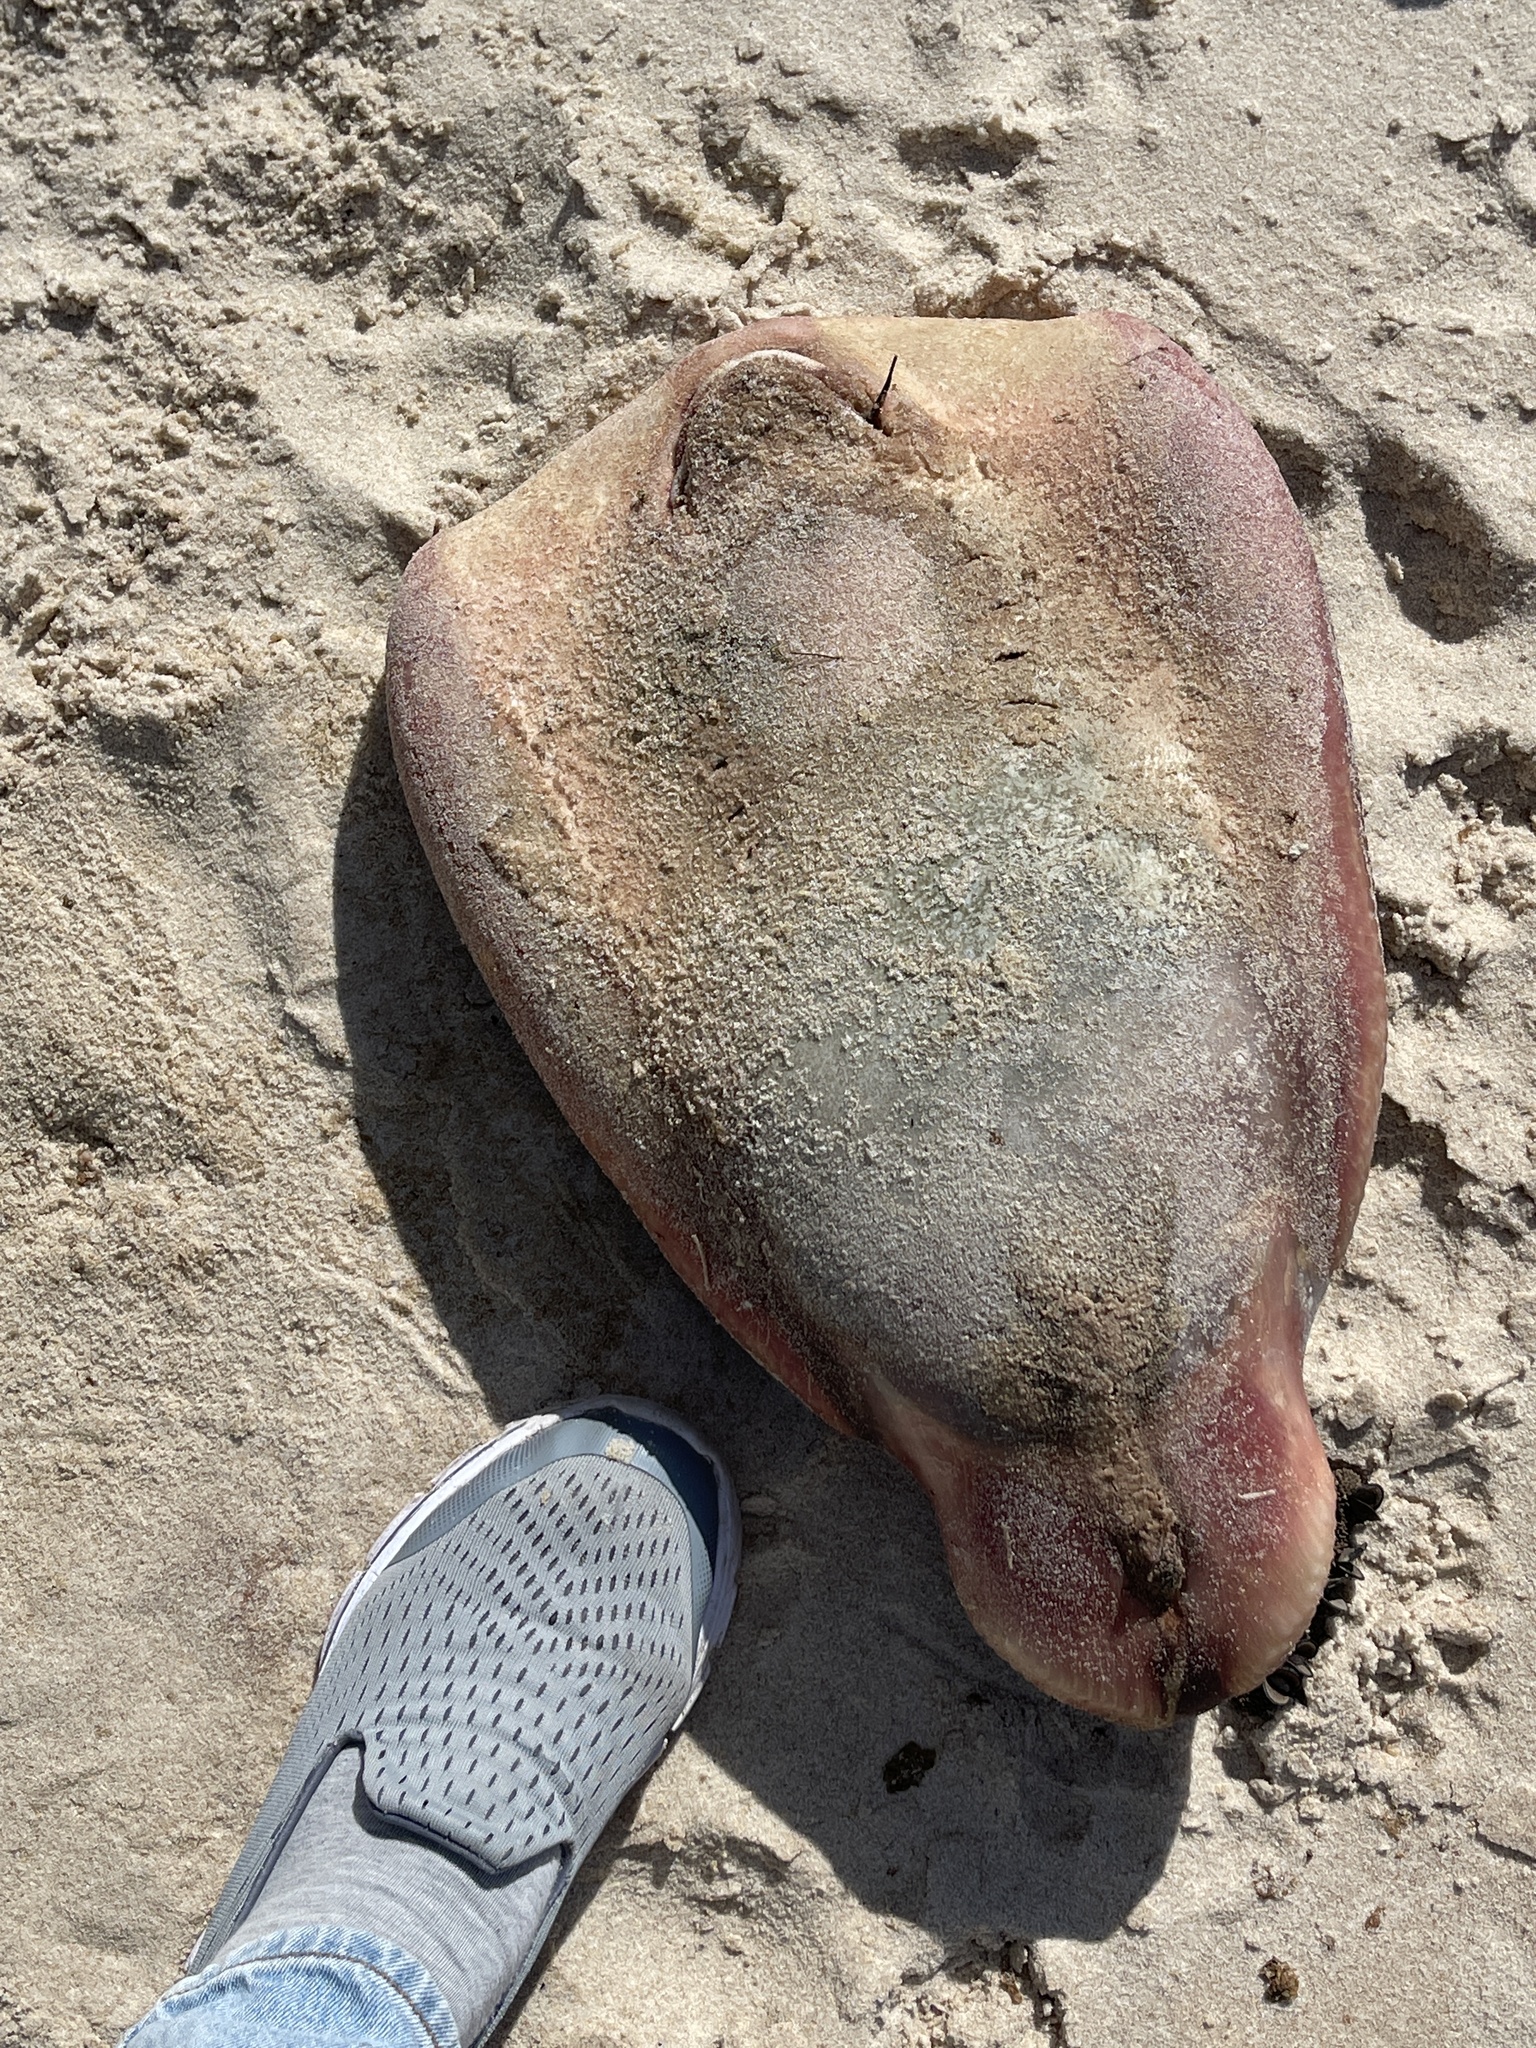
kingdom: Animalia
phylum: Chordata
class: Elasmobranchii
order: Torpediniformes
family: Hypnidae
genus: Hypnos
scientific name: Hypnos monopterygius
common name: Australian numbfish
